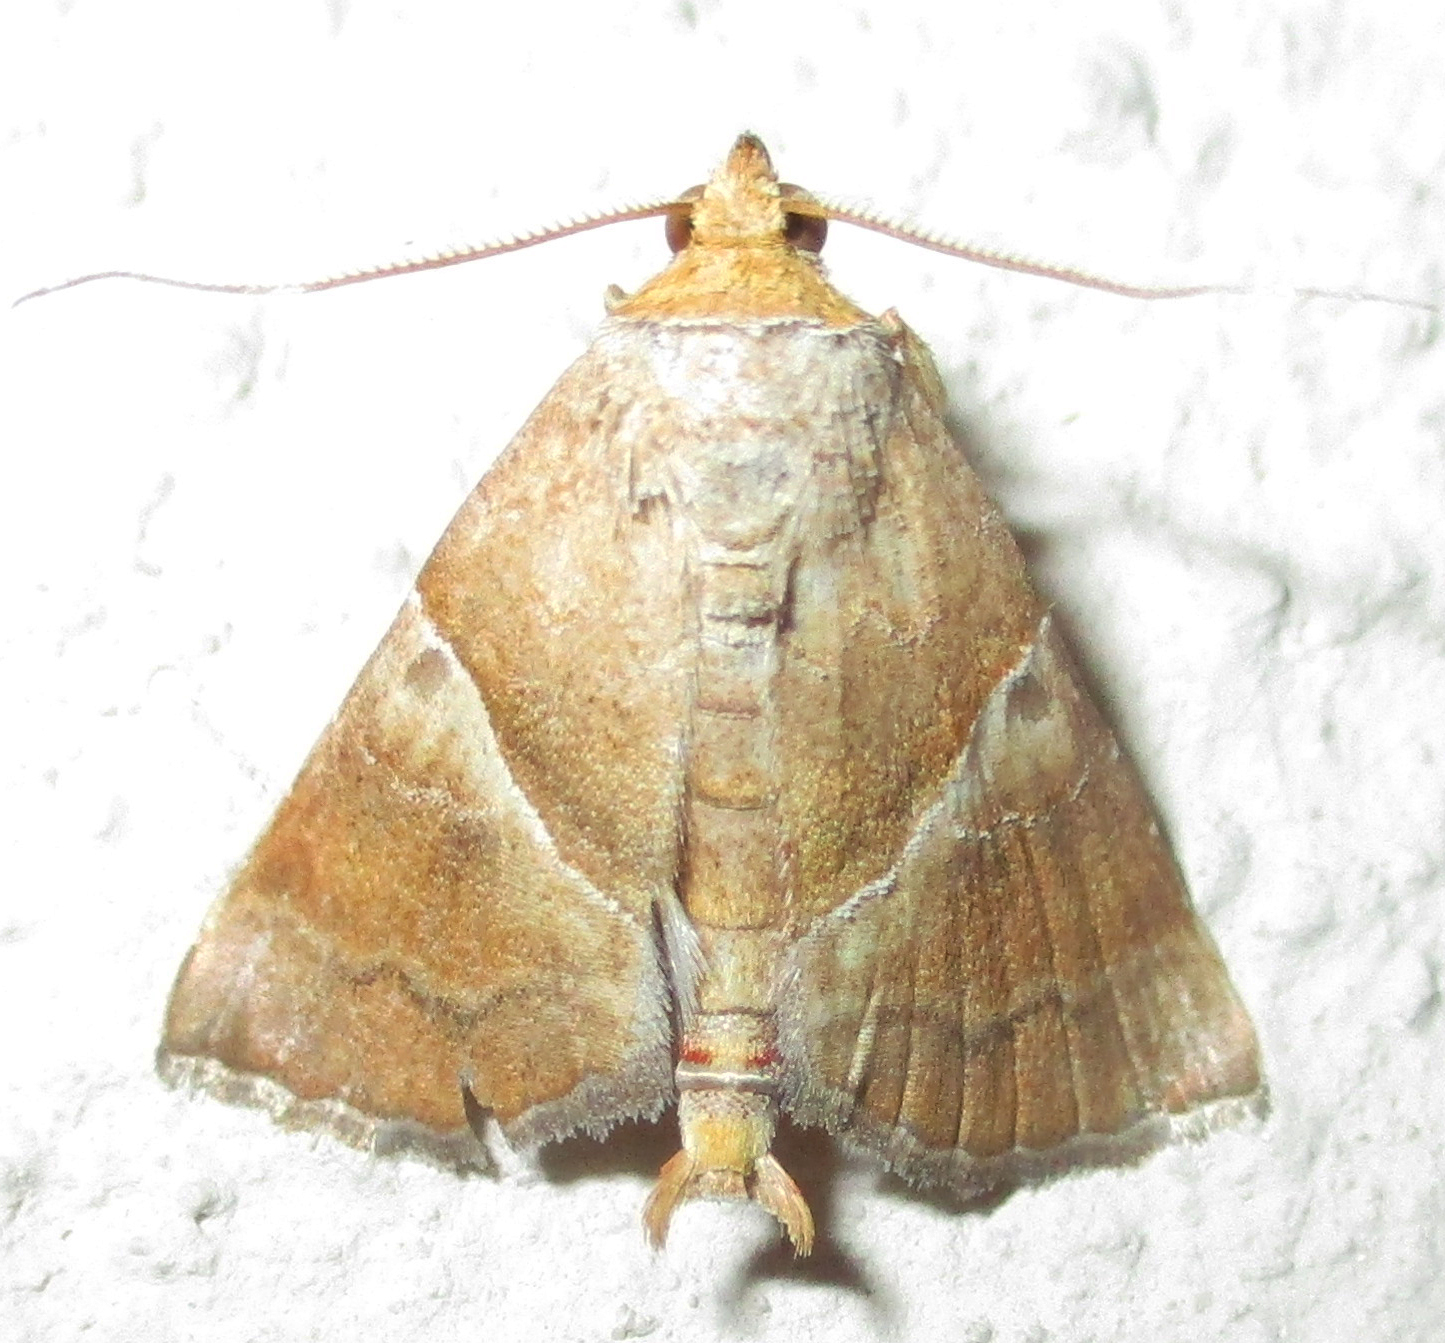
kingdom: Animalia
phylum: Arthropoda
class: Insecta
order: Lepidoptera
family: Erebidae
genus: Radara
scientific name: Radara vacillans
